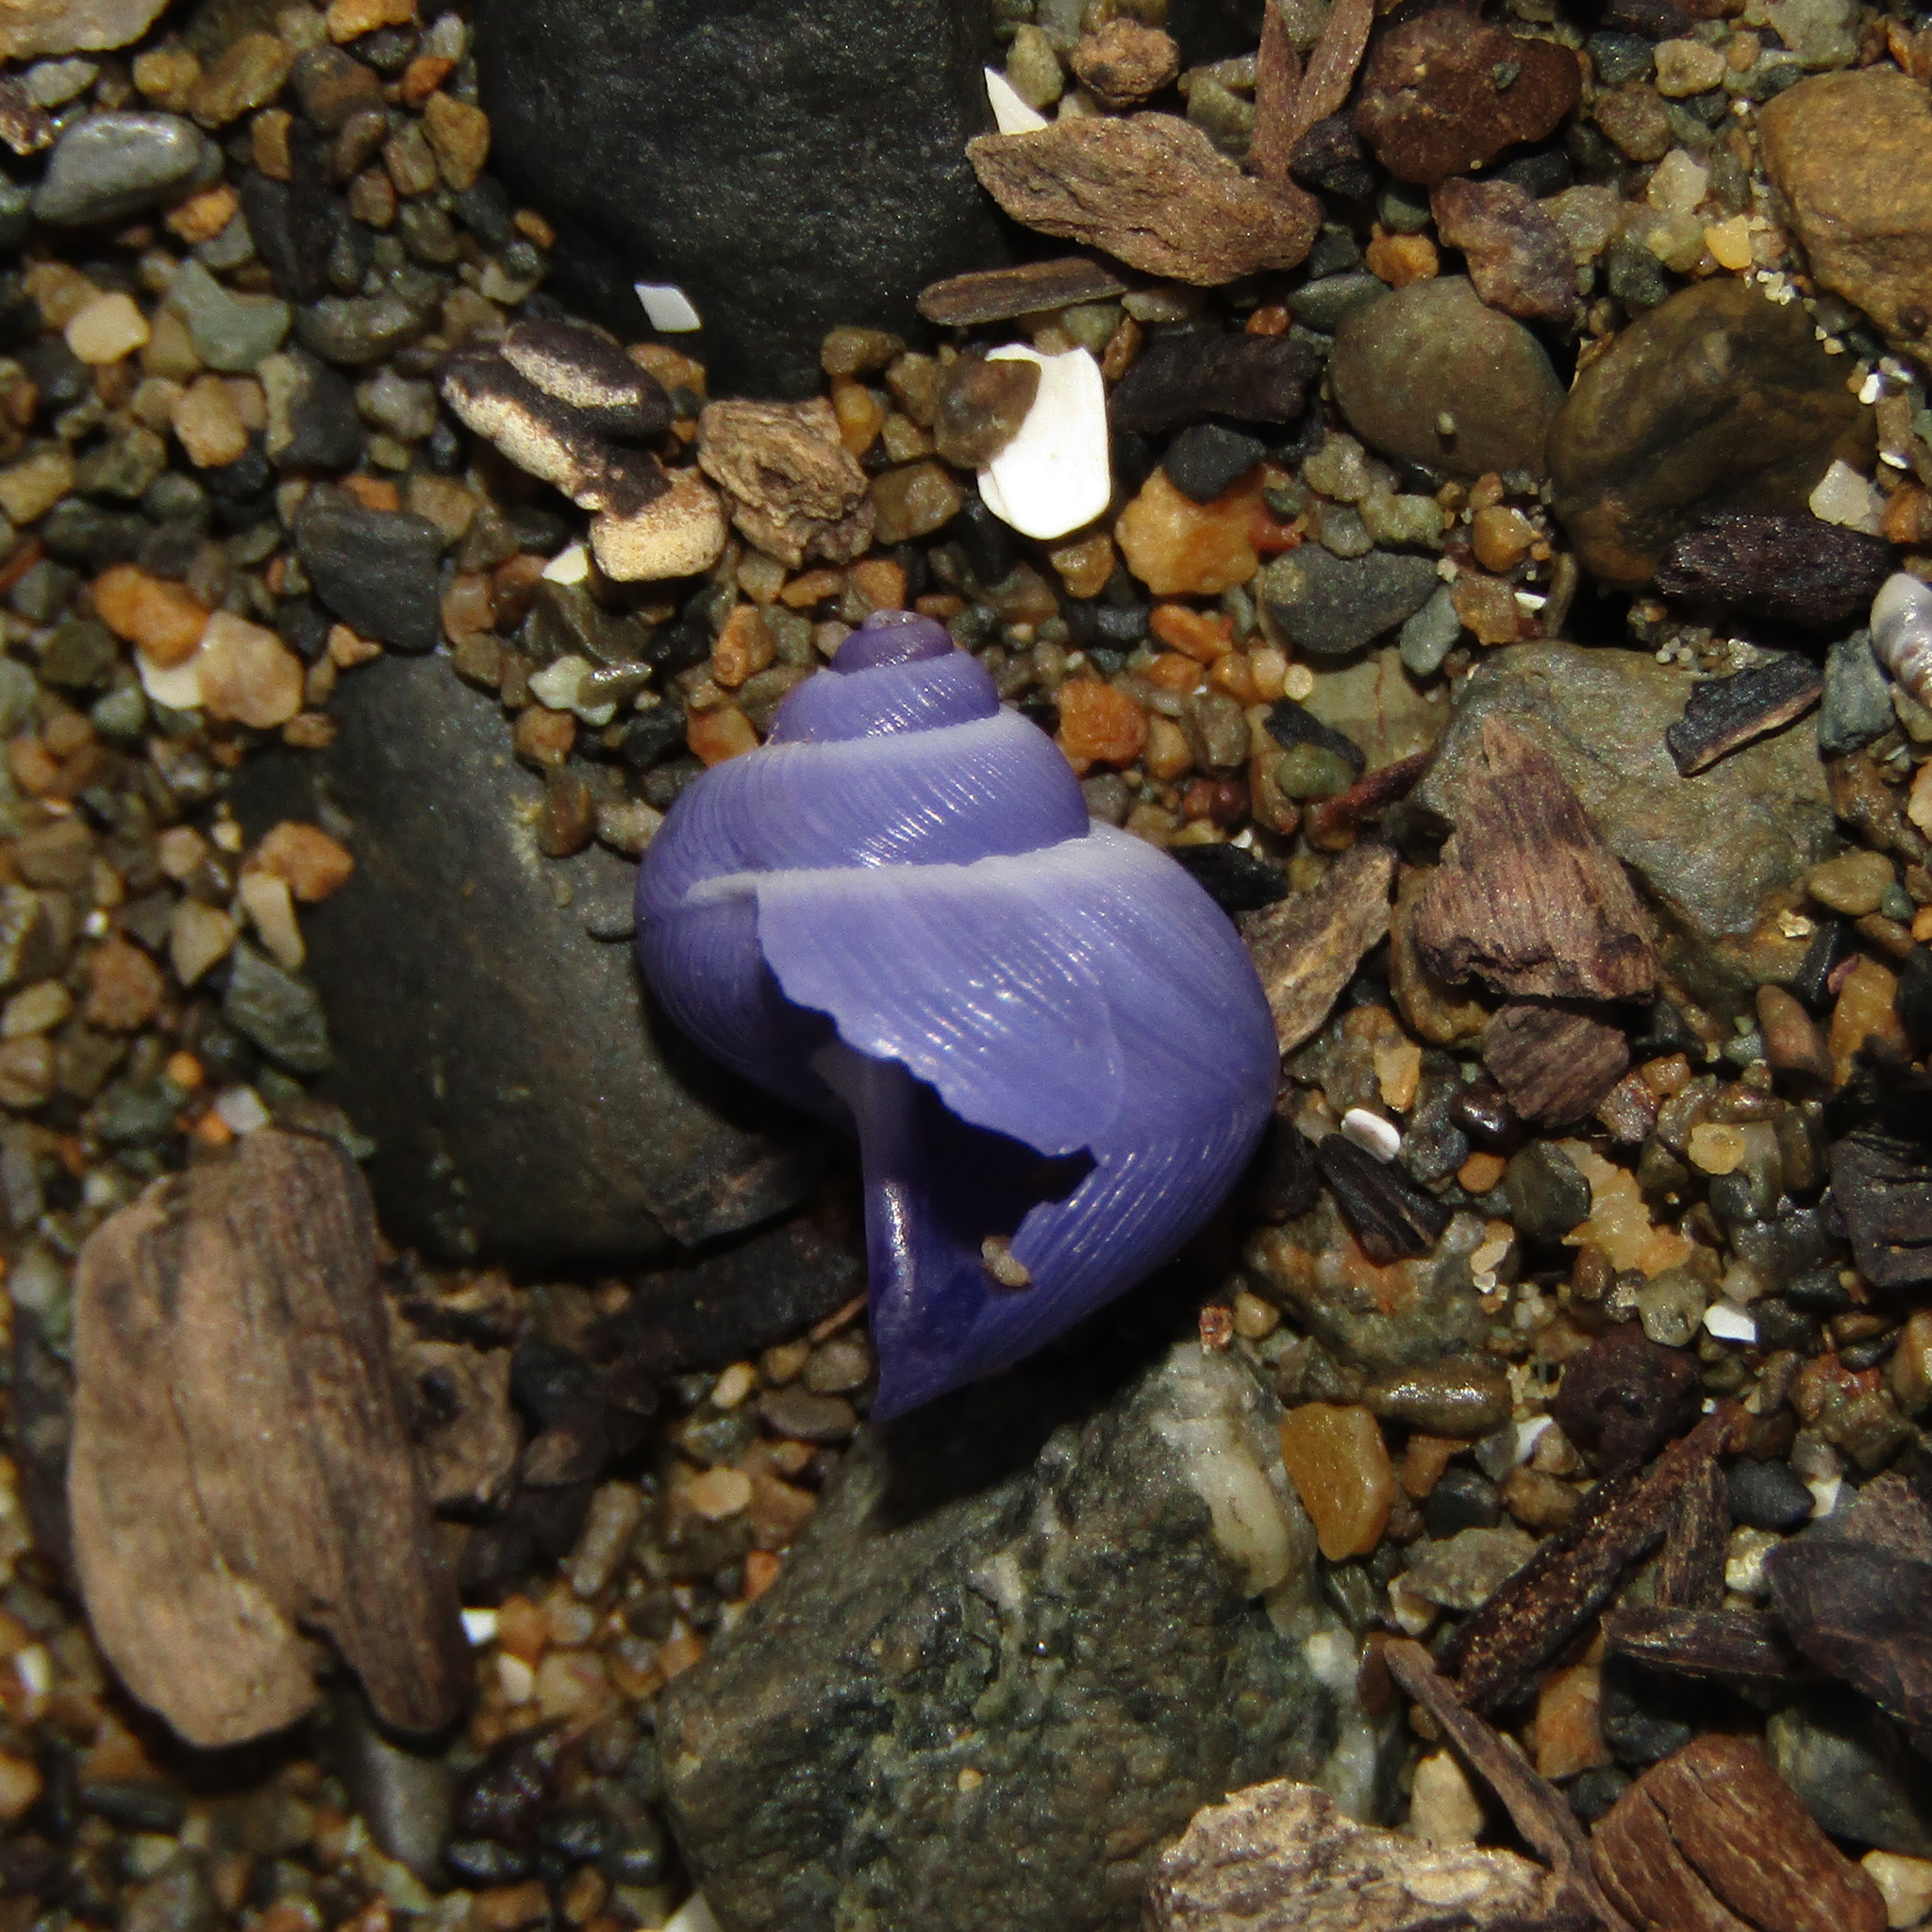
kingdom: Animalia
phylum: Mollusca
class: Gastropoda
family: Epitoniidae
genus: Janthina
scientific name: Janthina exigua
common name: Dwarf janthina
